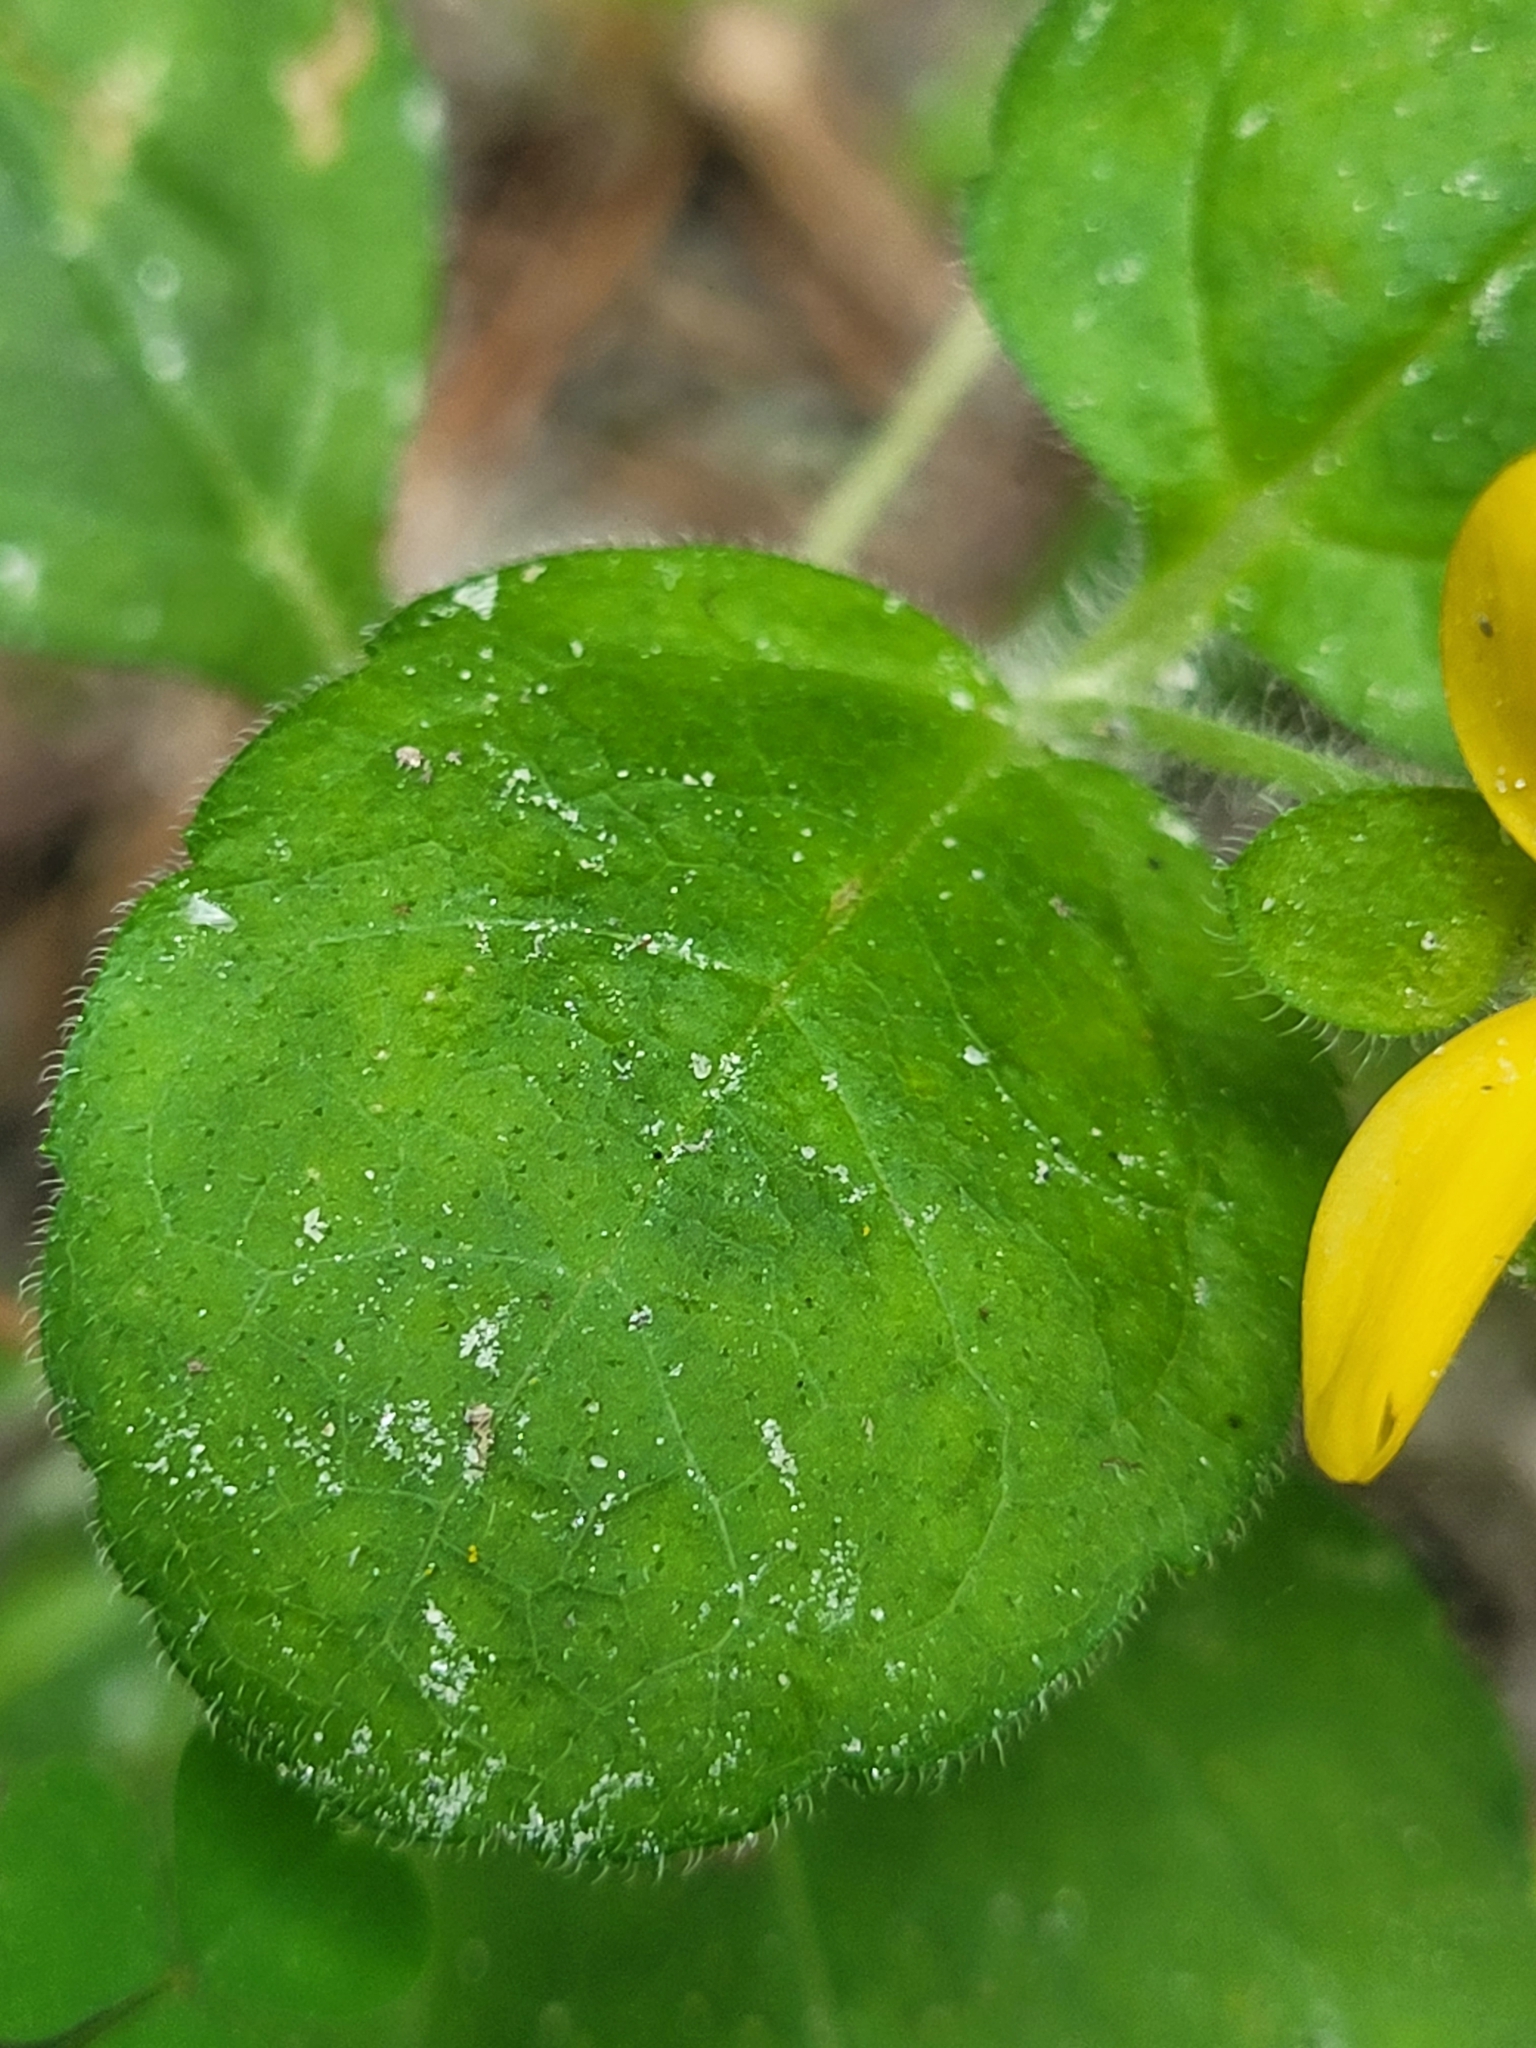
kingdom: Plantae
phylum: Tracheophyta
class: Magnoliopsida
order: Asterales
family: Asteraceae
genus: Chrysogonum
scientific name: Chrysogonum virginianum
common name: Golden-knee
